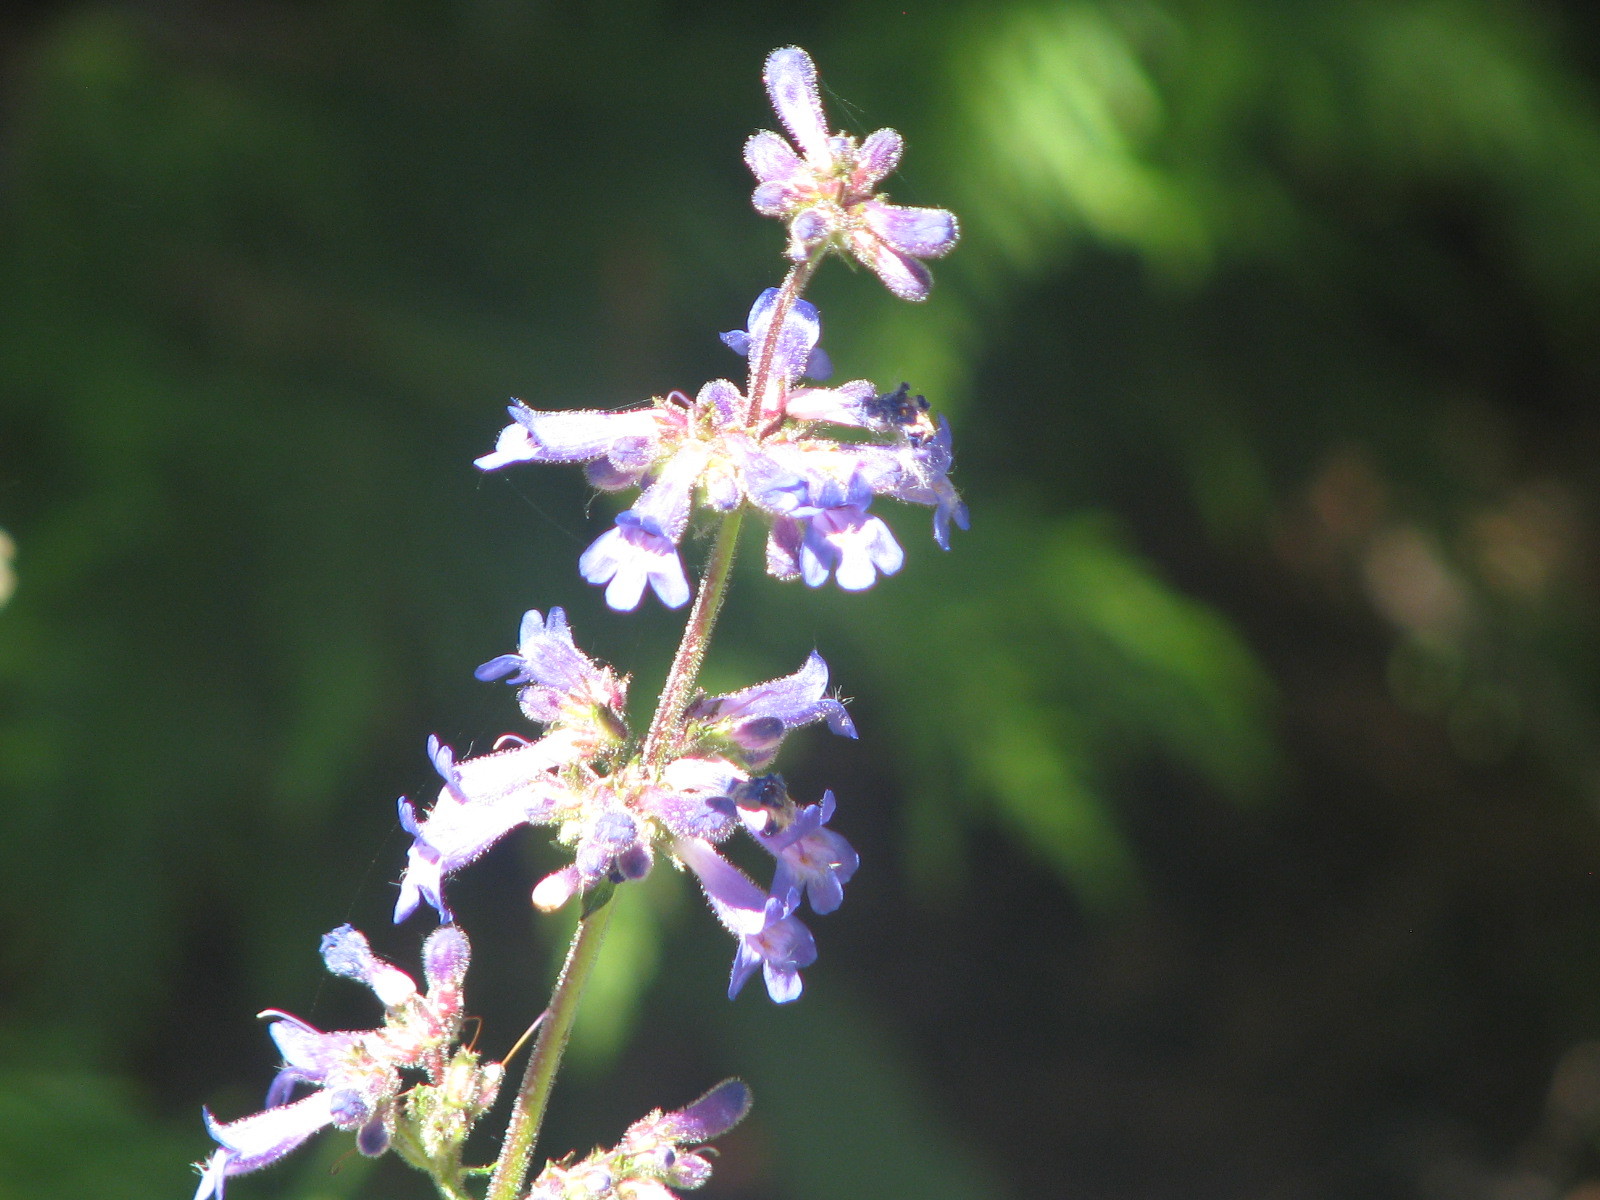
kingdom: Plantae
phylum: Tracheophyta
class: Magnoliopsida
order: Lamiales
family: Plantaginaceae
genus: Penstemon
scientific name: Penstemon subserratus
